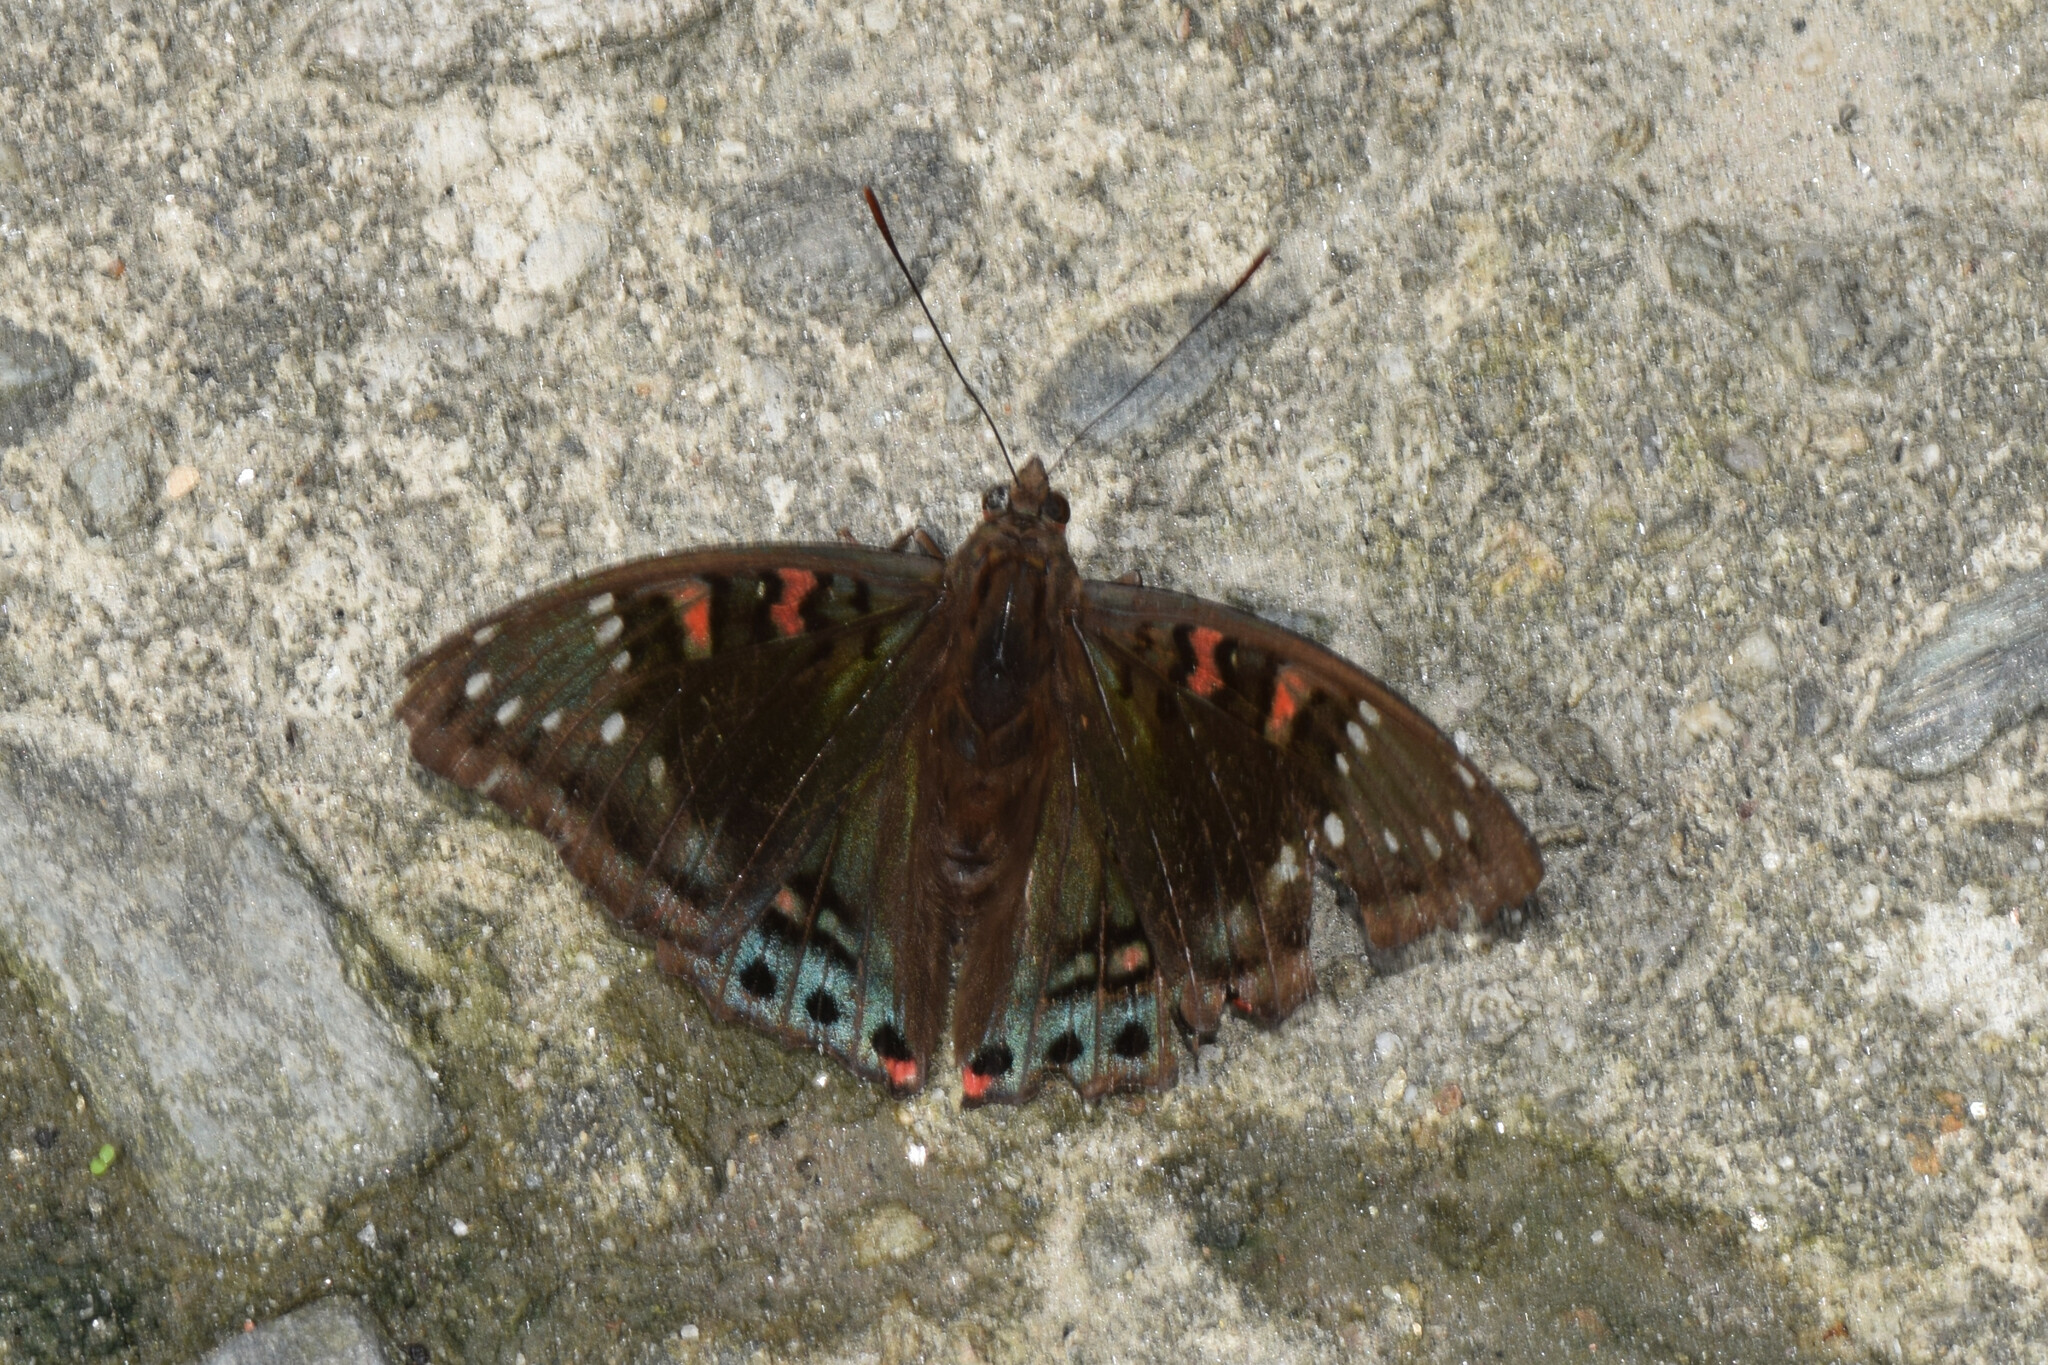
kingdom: Animalia
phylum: Arthropoda
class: Insecta
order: Lepidoptera
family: Nymphalidae
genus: Euthalia
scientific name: Euthalia lubentina
